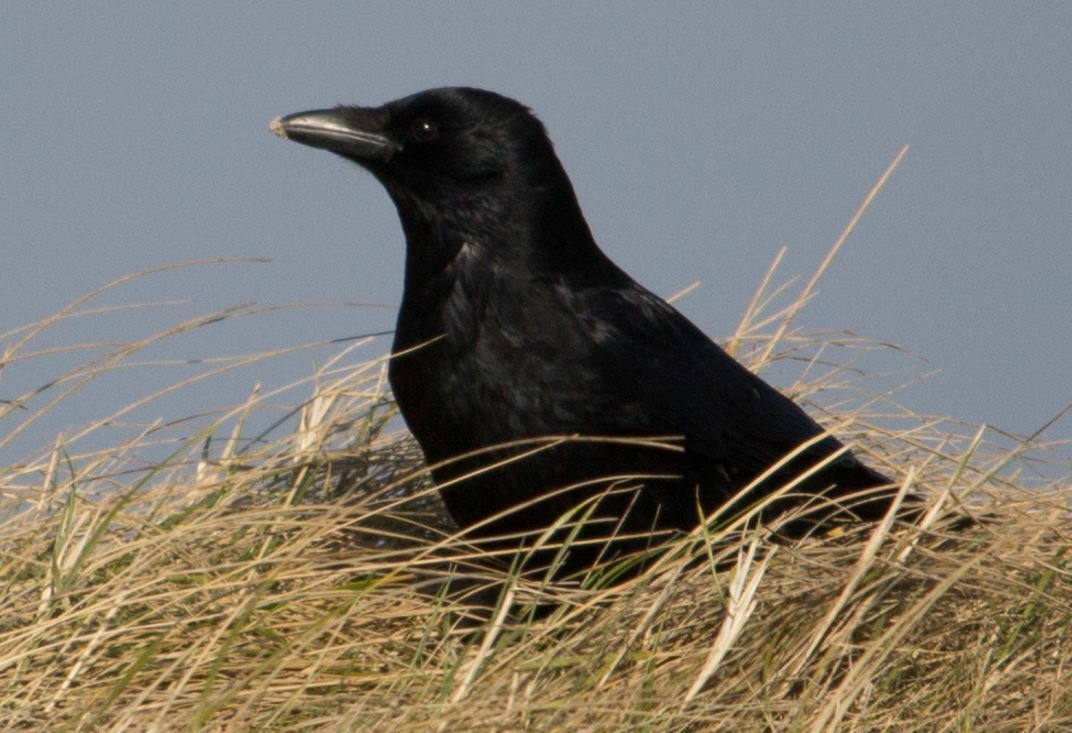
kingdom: Animalia
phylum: Chordata
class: Aves
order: Passeriformes
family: Corvidae
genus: Corvus
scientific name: Corvus corone
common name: Carrion crow
